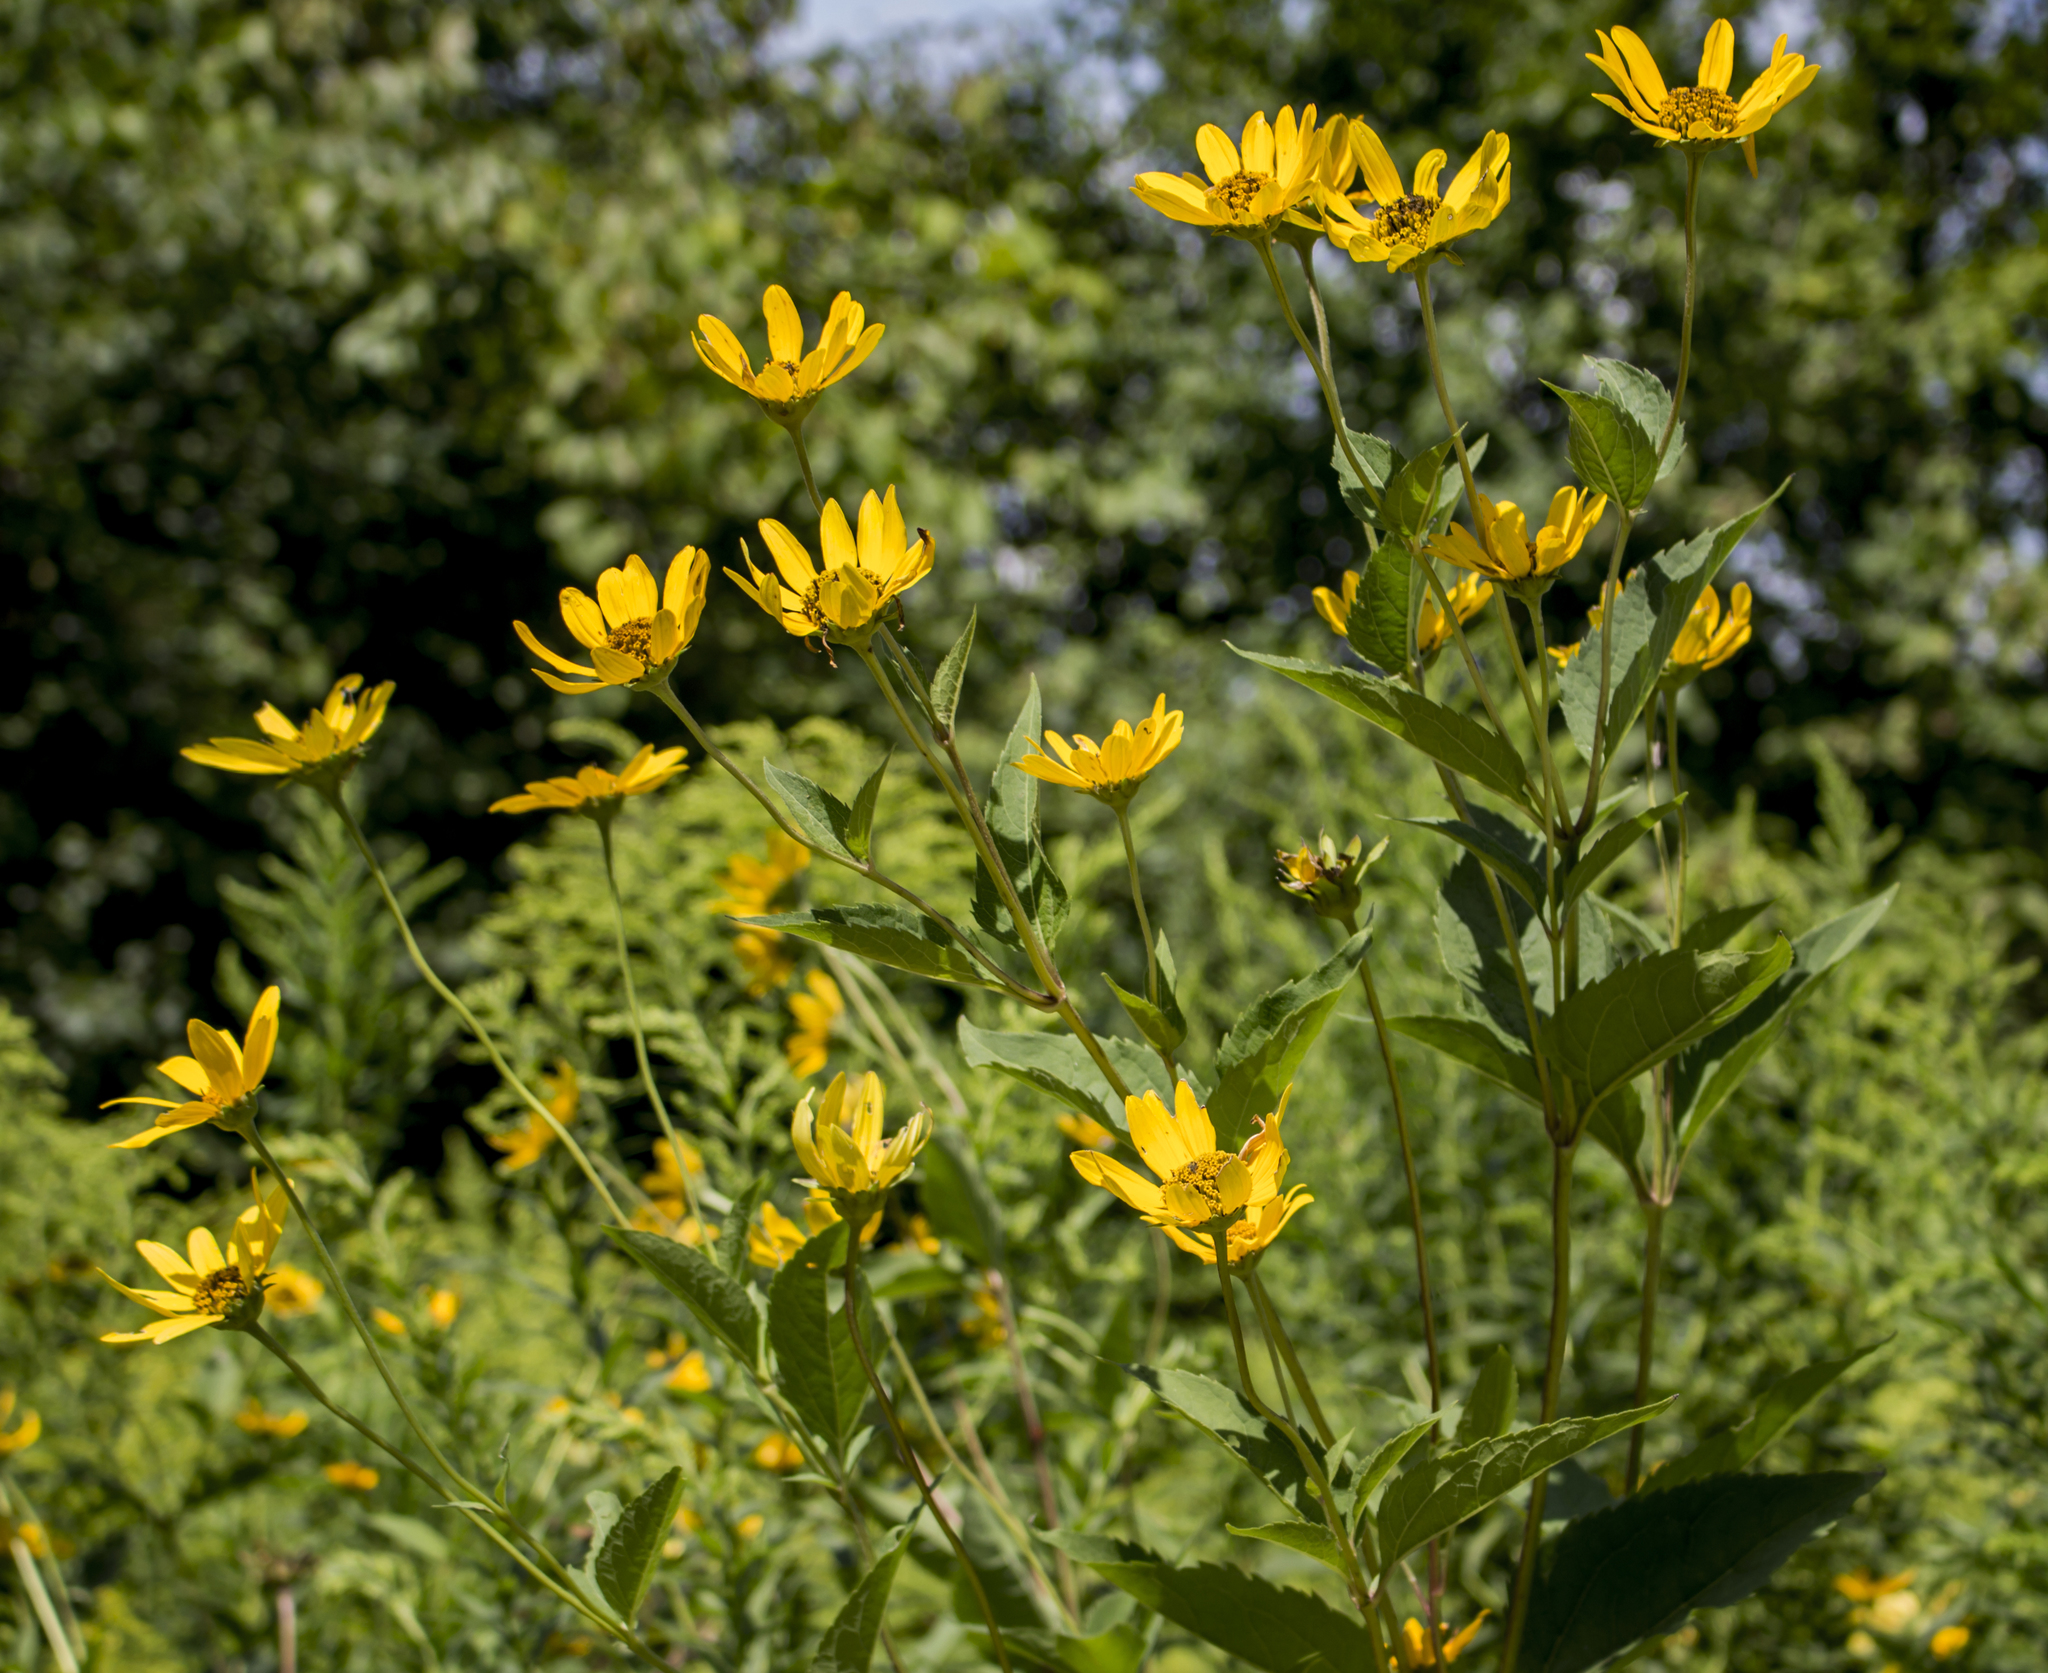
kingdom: Plantae
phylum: Tracheophyta
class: Magnoliopsida
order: Asterales
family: Asteraceae
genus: Heliopsis
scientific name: Heliopsis helianthoides
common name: False sunflower
